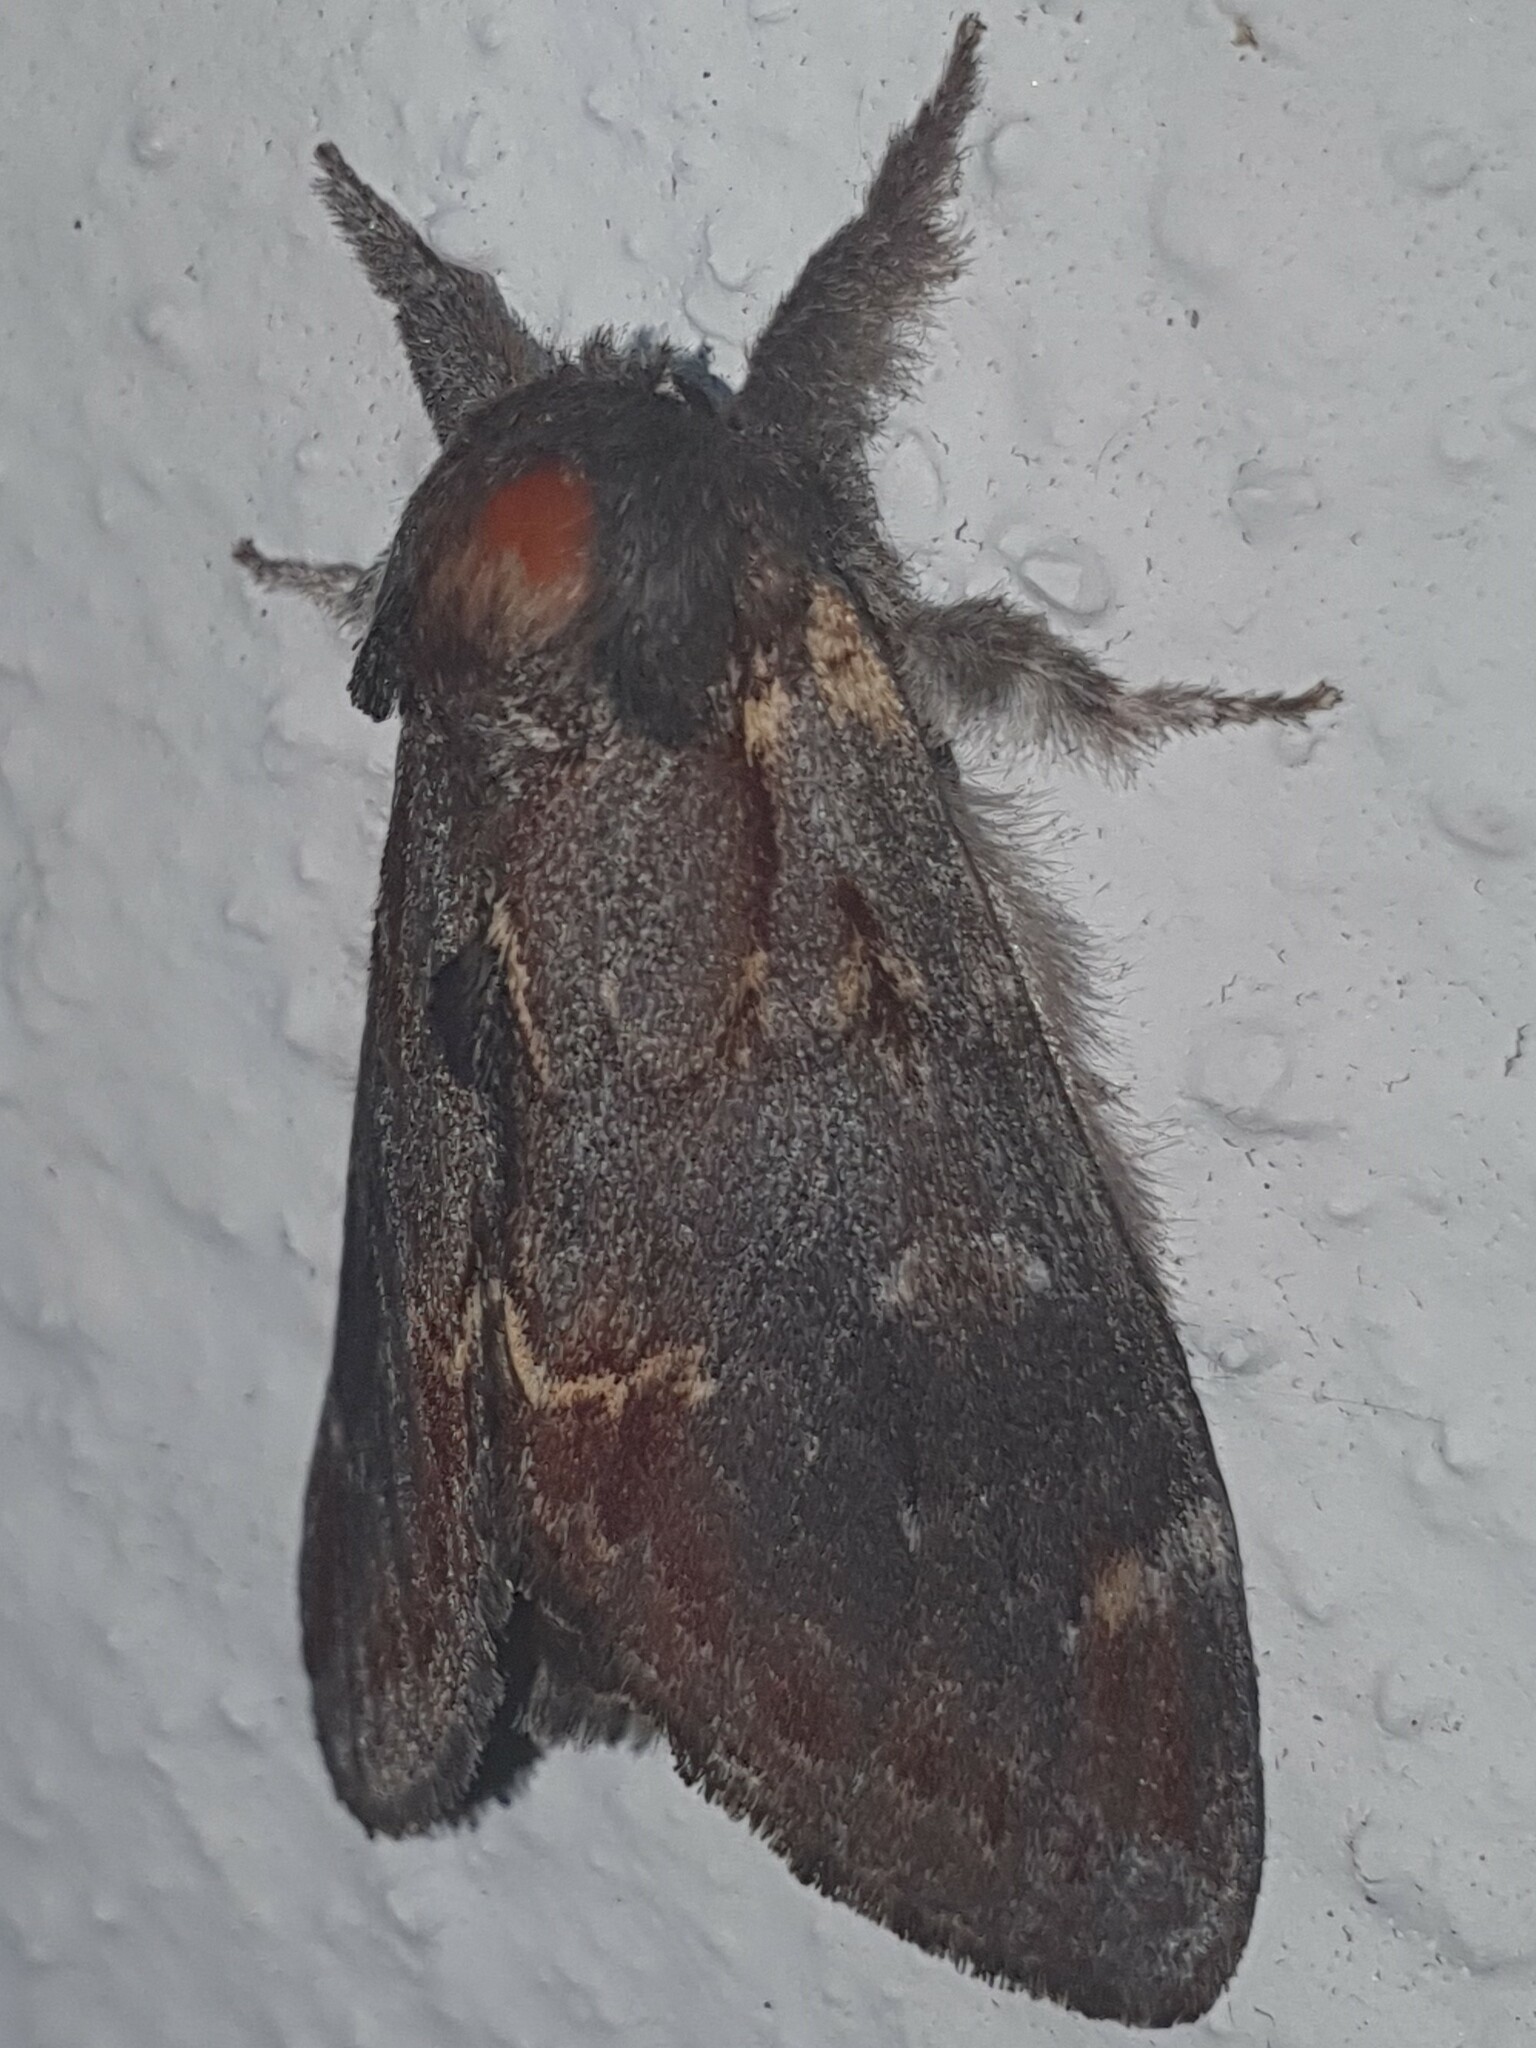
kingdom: Animalia
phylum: Arthropoda
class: Insecta
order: Lepidoptera
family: Notodontidae
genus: Notodonta
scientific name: Notodonta dromedarius
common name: Iron prominent
